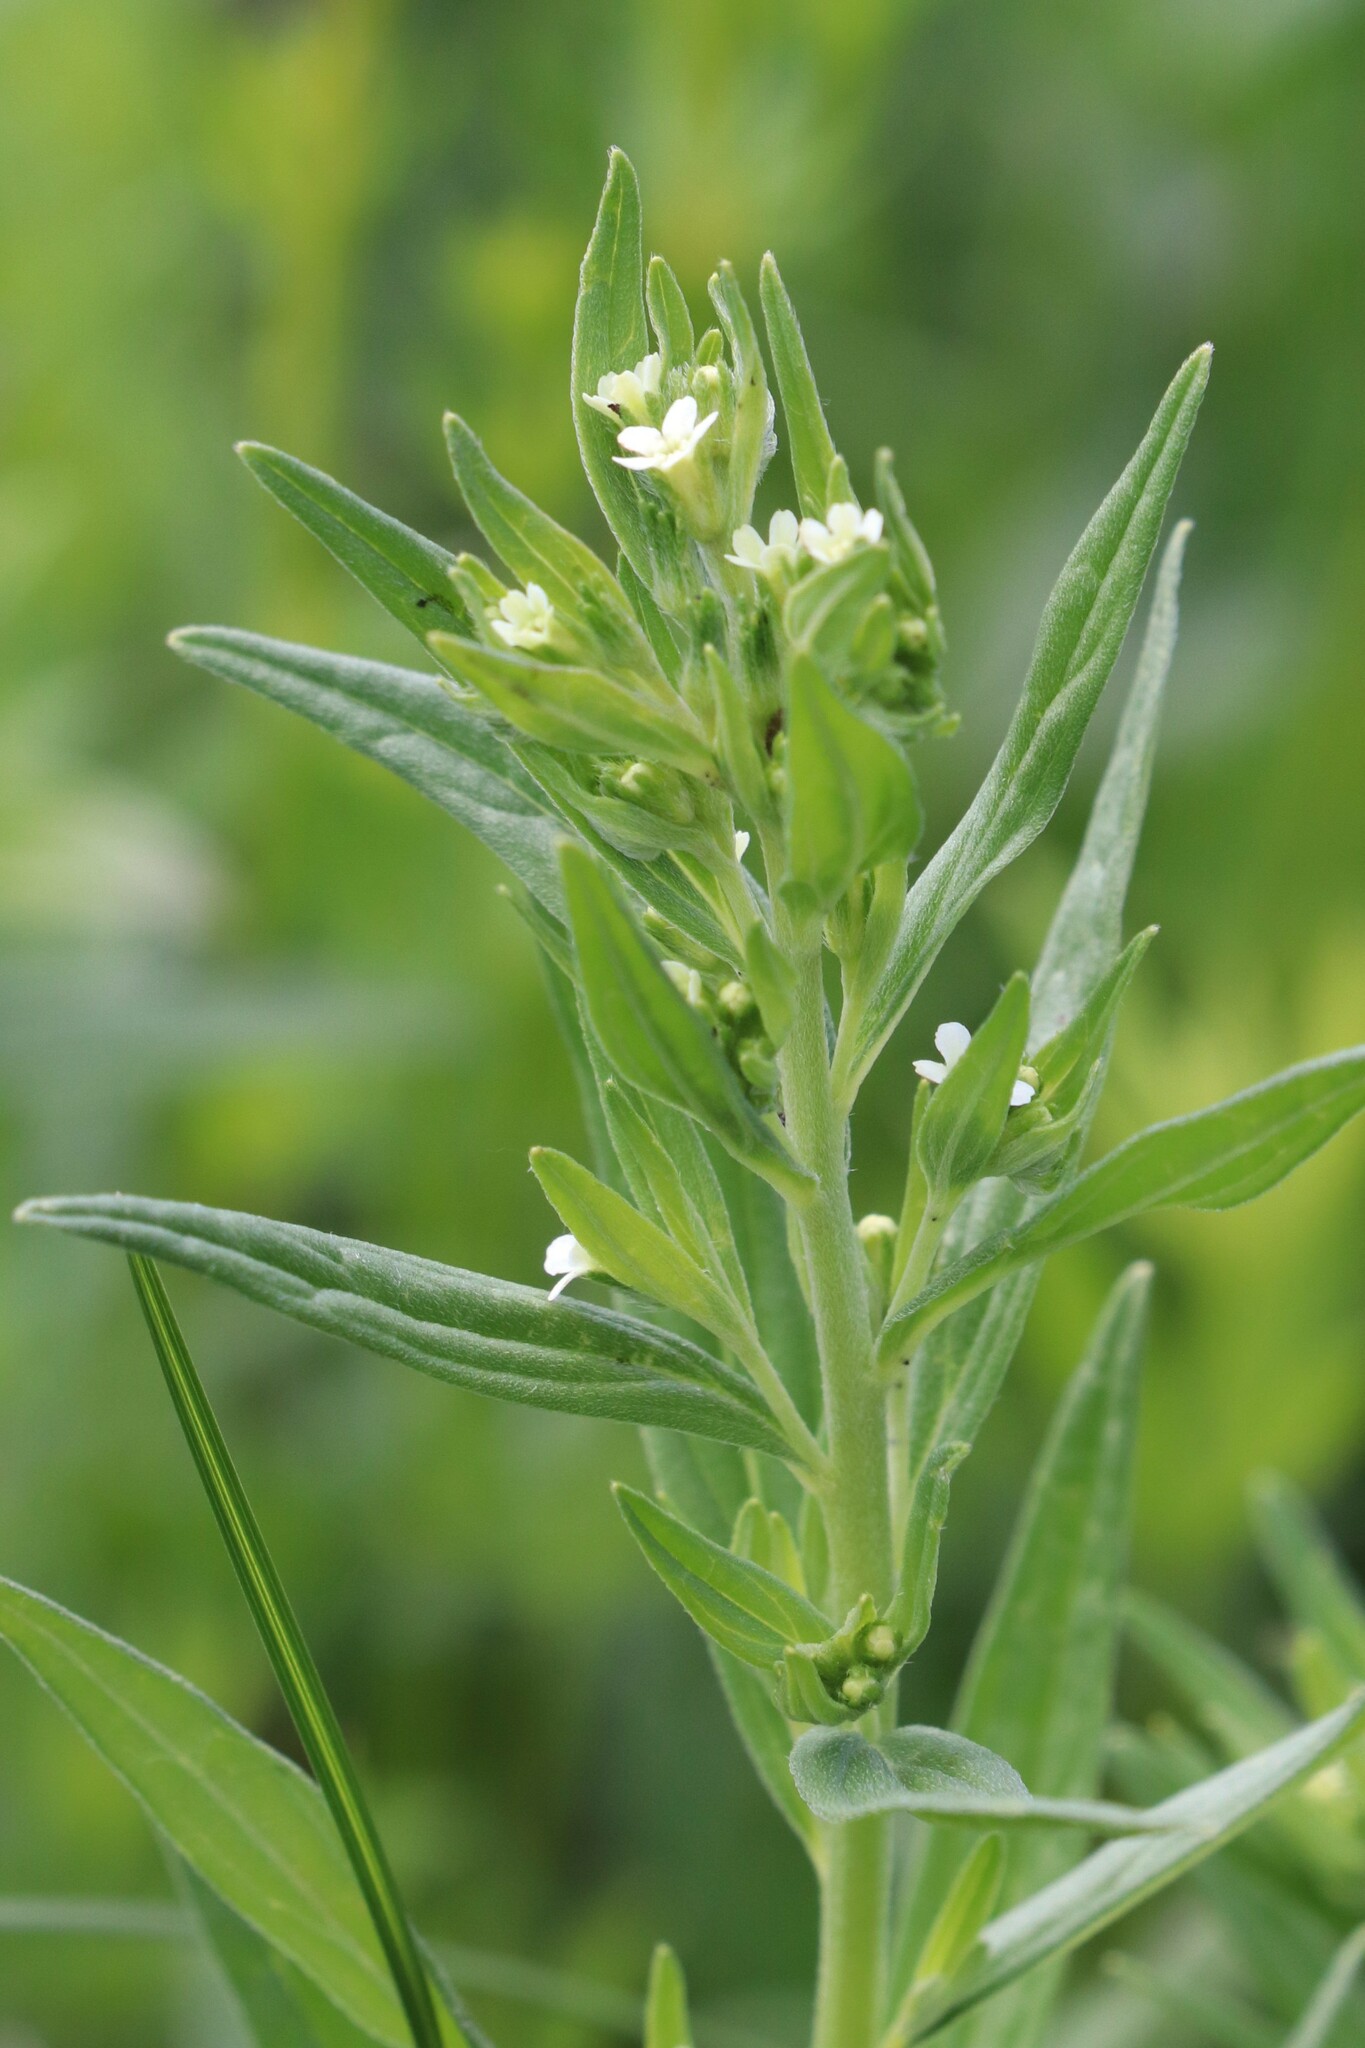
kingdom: Plantae
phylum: Tracheophyta
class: Magnoliopsida
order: Boraginales
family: Boraginaceae
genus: Lithospermum
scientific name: Lithospermum officinale
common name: Common gromwell
